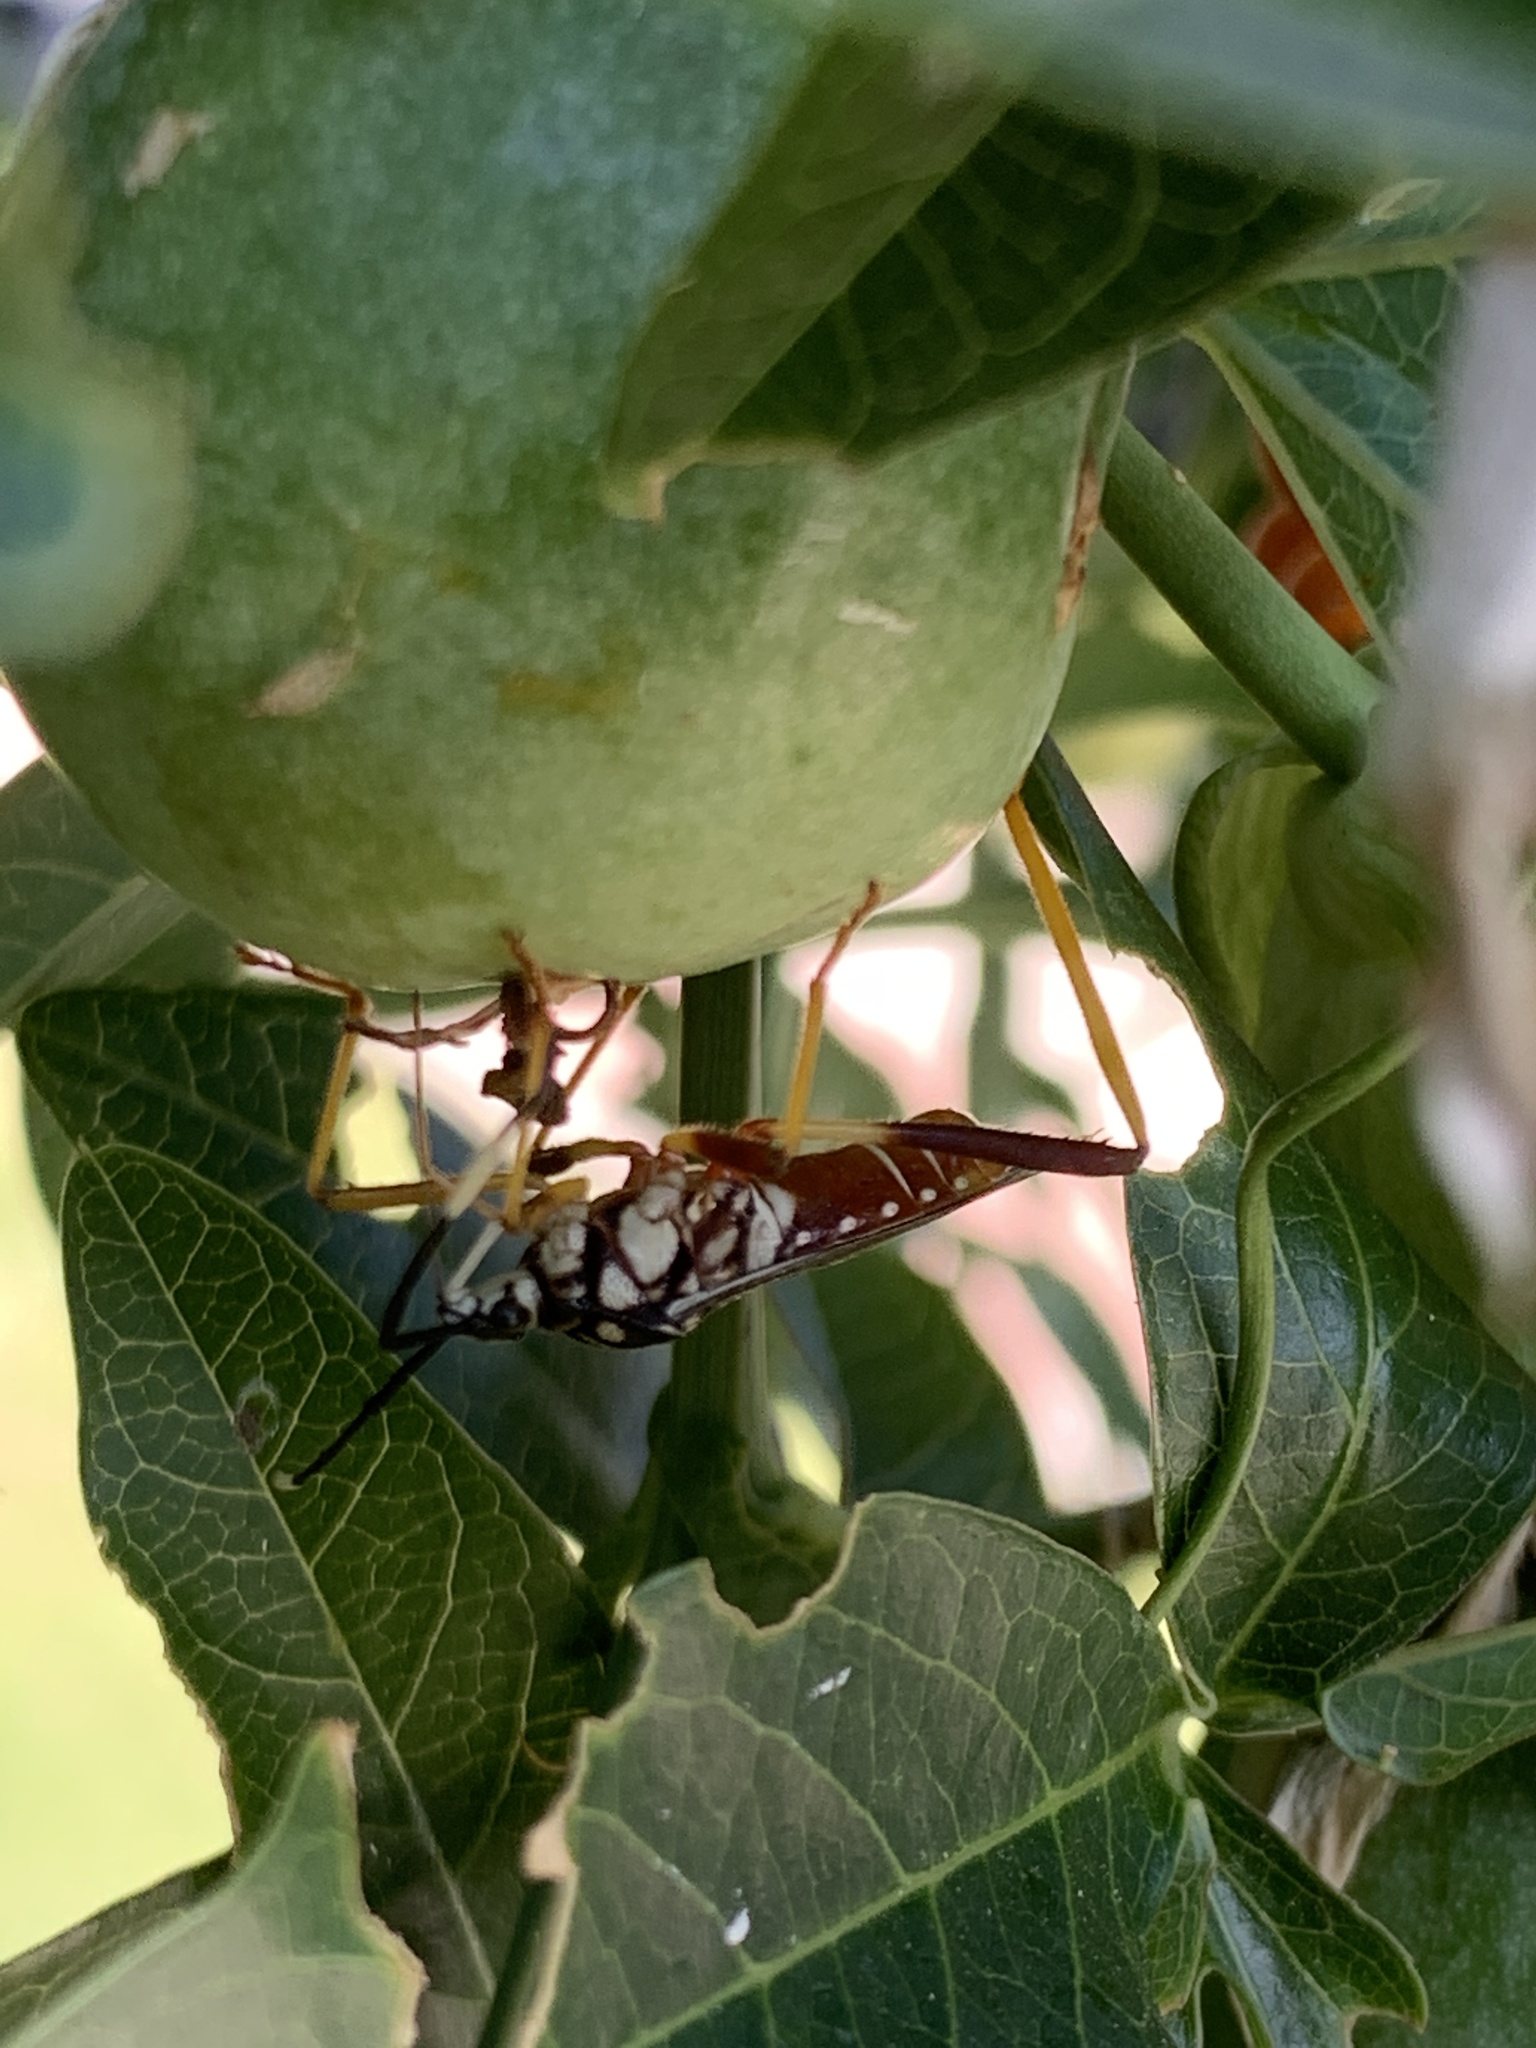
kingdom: Animalia
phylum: Arthropoda
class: Insecta
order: Hemiptera
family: Coreidae
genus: Holhymenia
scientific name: Holhymenia histrio
